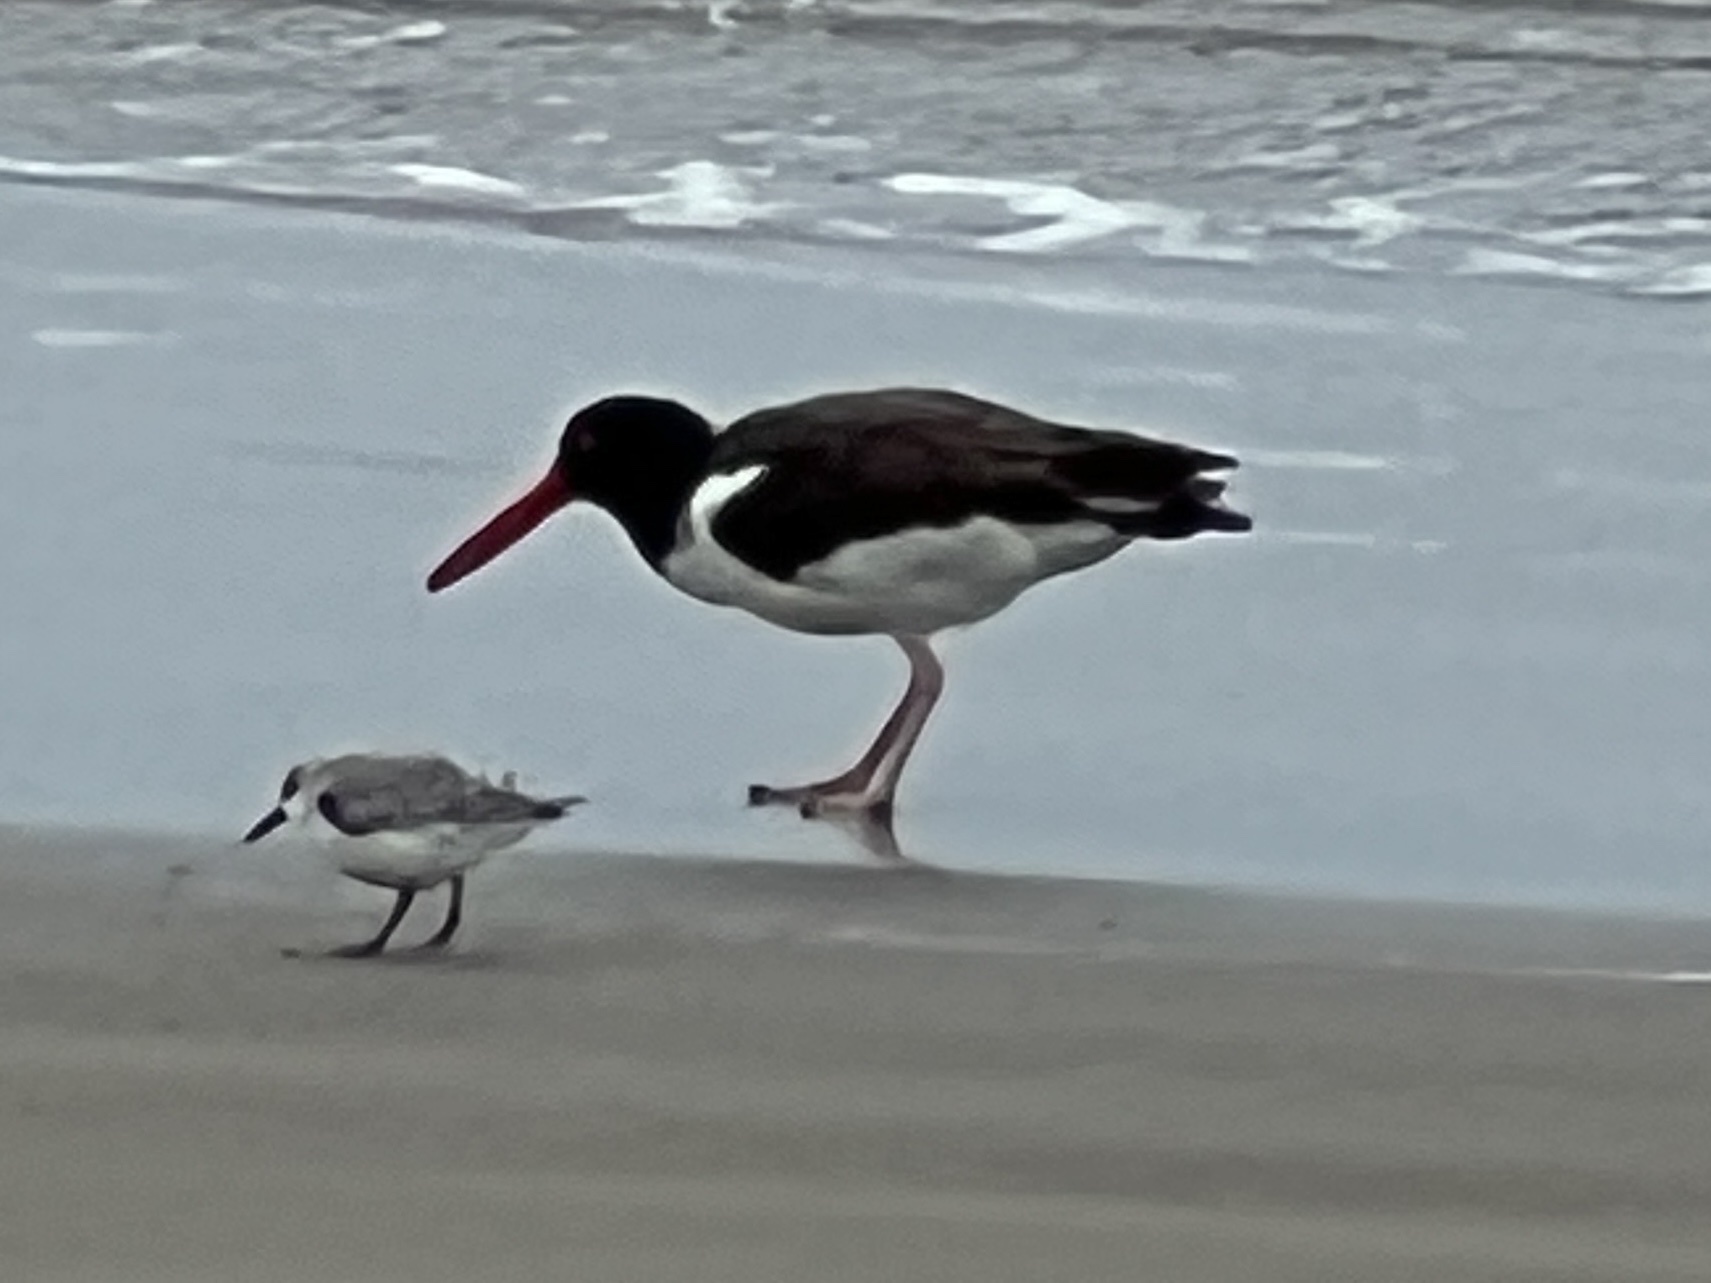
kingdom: Animalia
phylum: Chordata
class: Aves
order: Charadriiformes
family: Haematopodidae
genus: Haematopus
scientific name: Haematopus palliatus
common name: American oystercatcher
